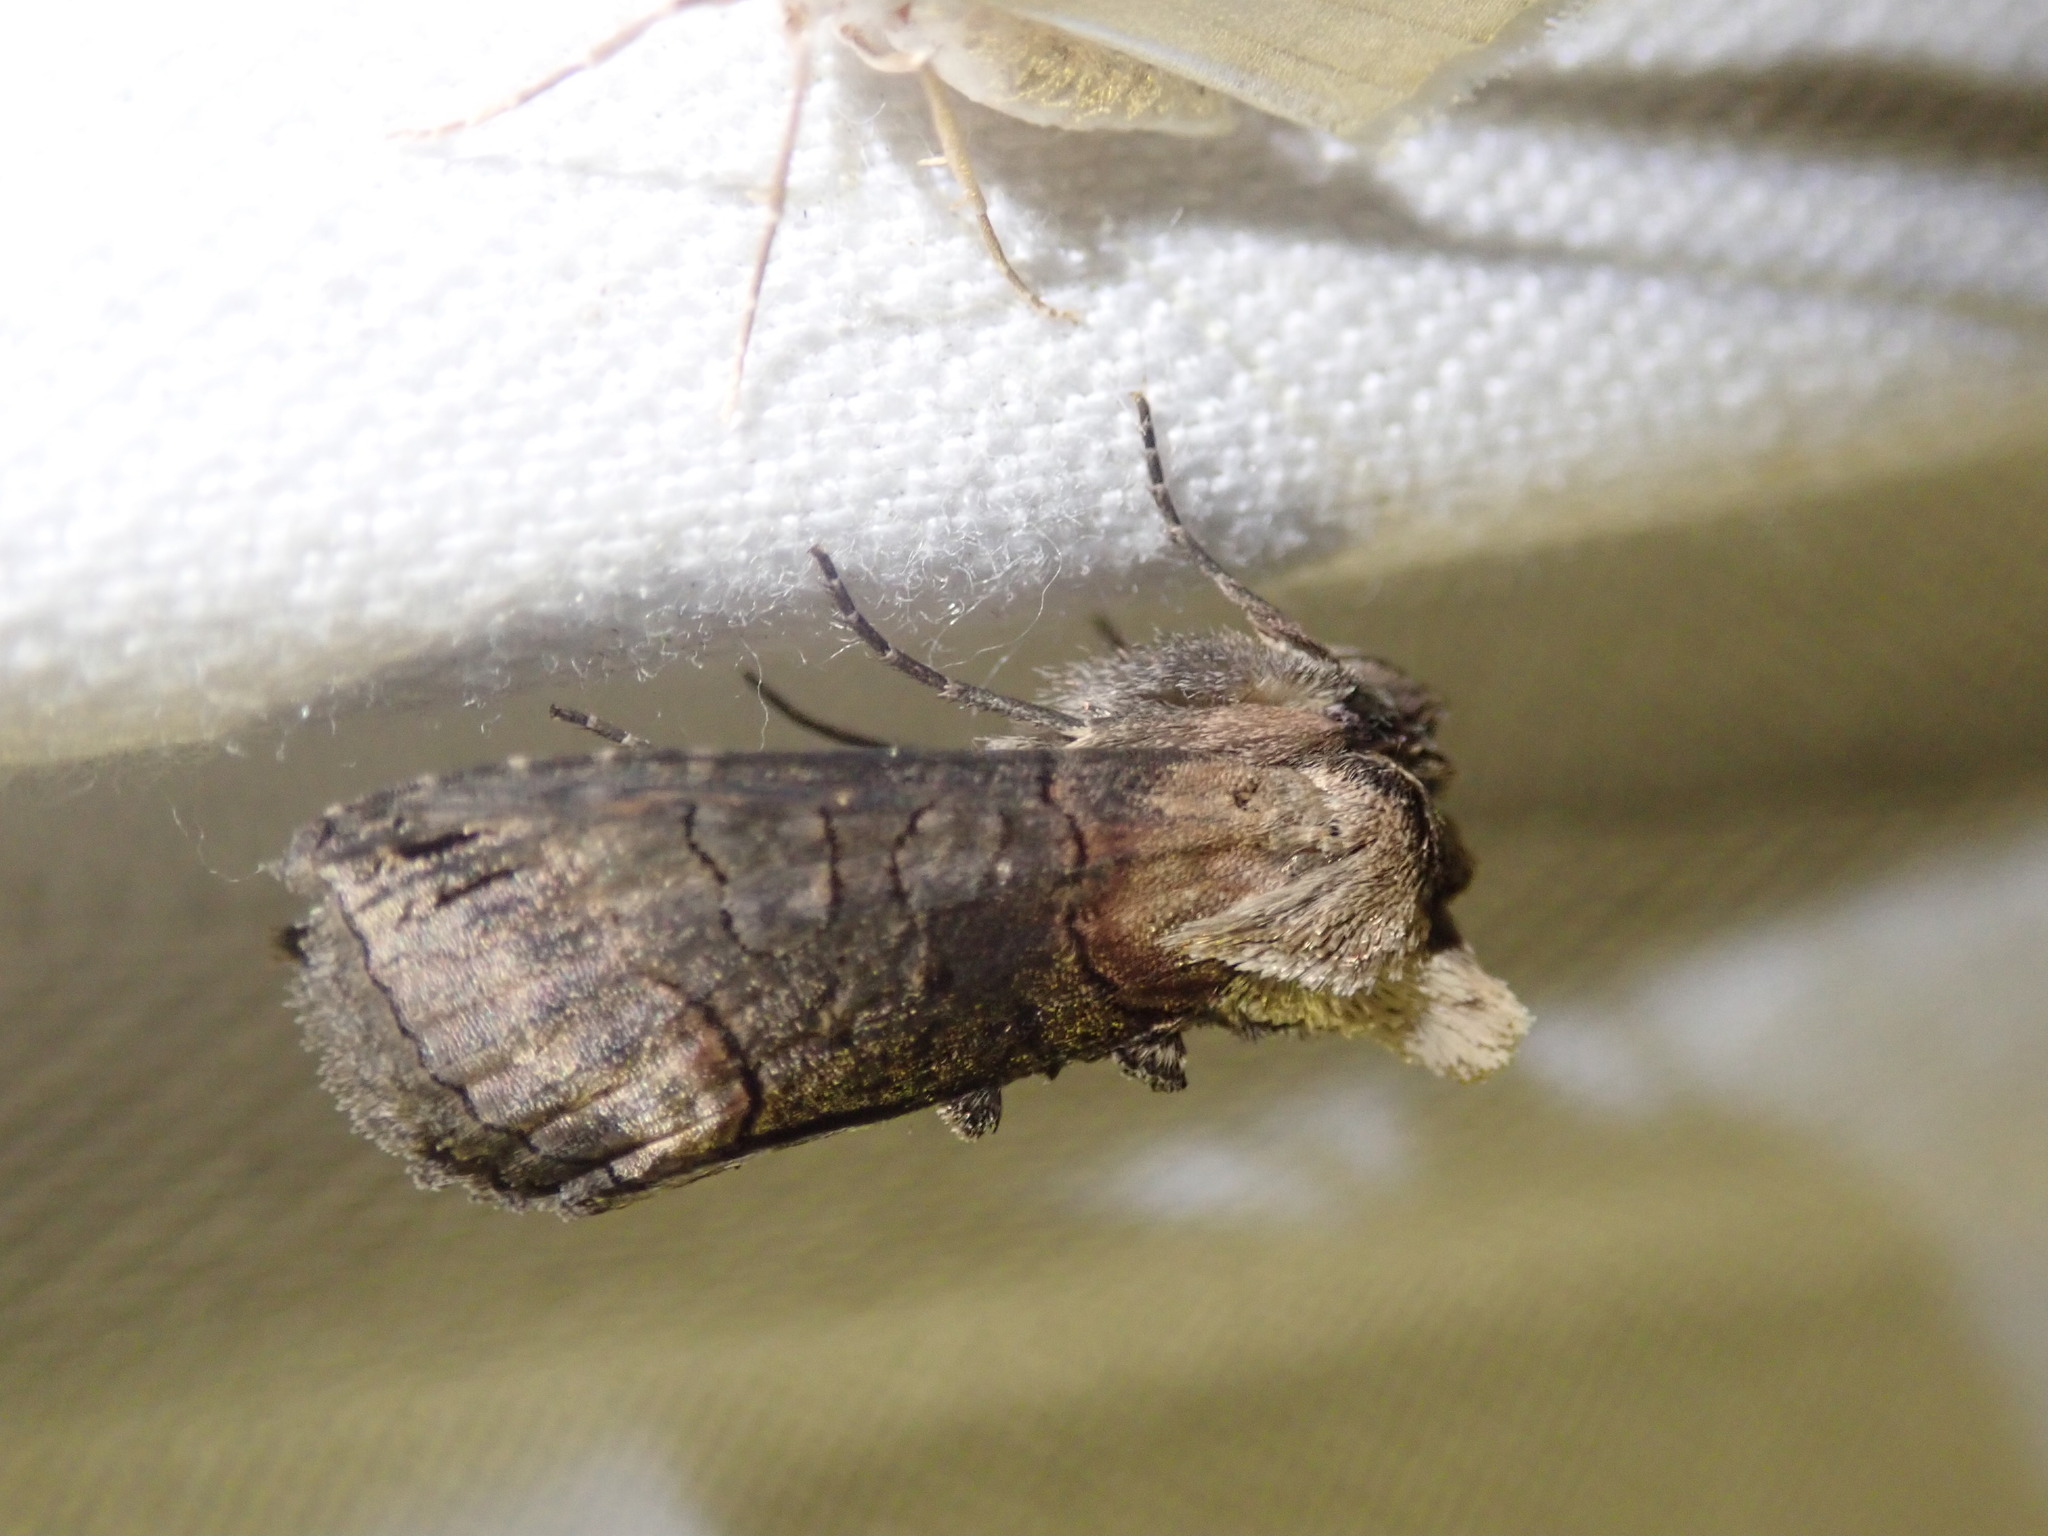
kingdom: Animalia
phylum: Arthropoda
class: Insecta
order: Lepidoptera
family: Noctuidae
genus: Abrostola
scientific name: Abrostola triplasia
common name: Dark spectacle
